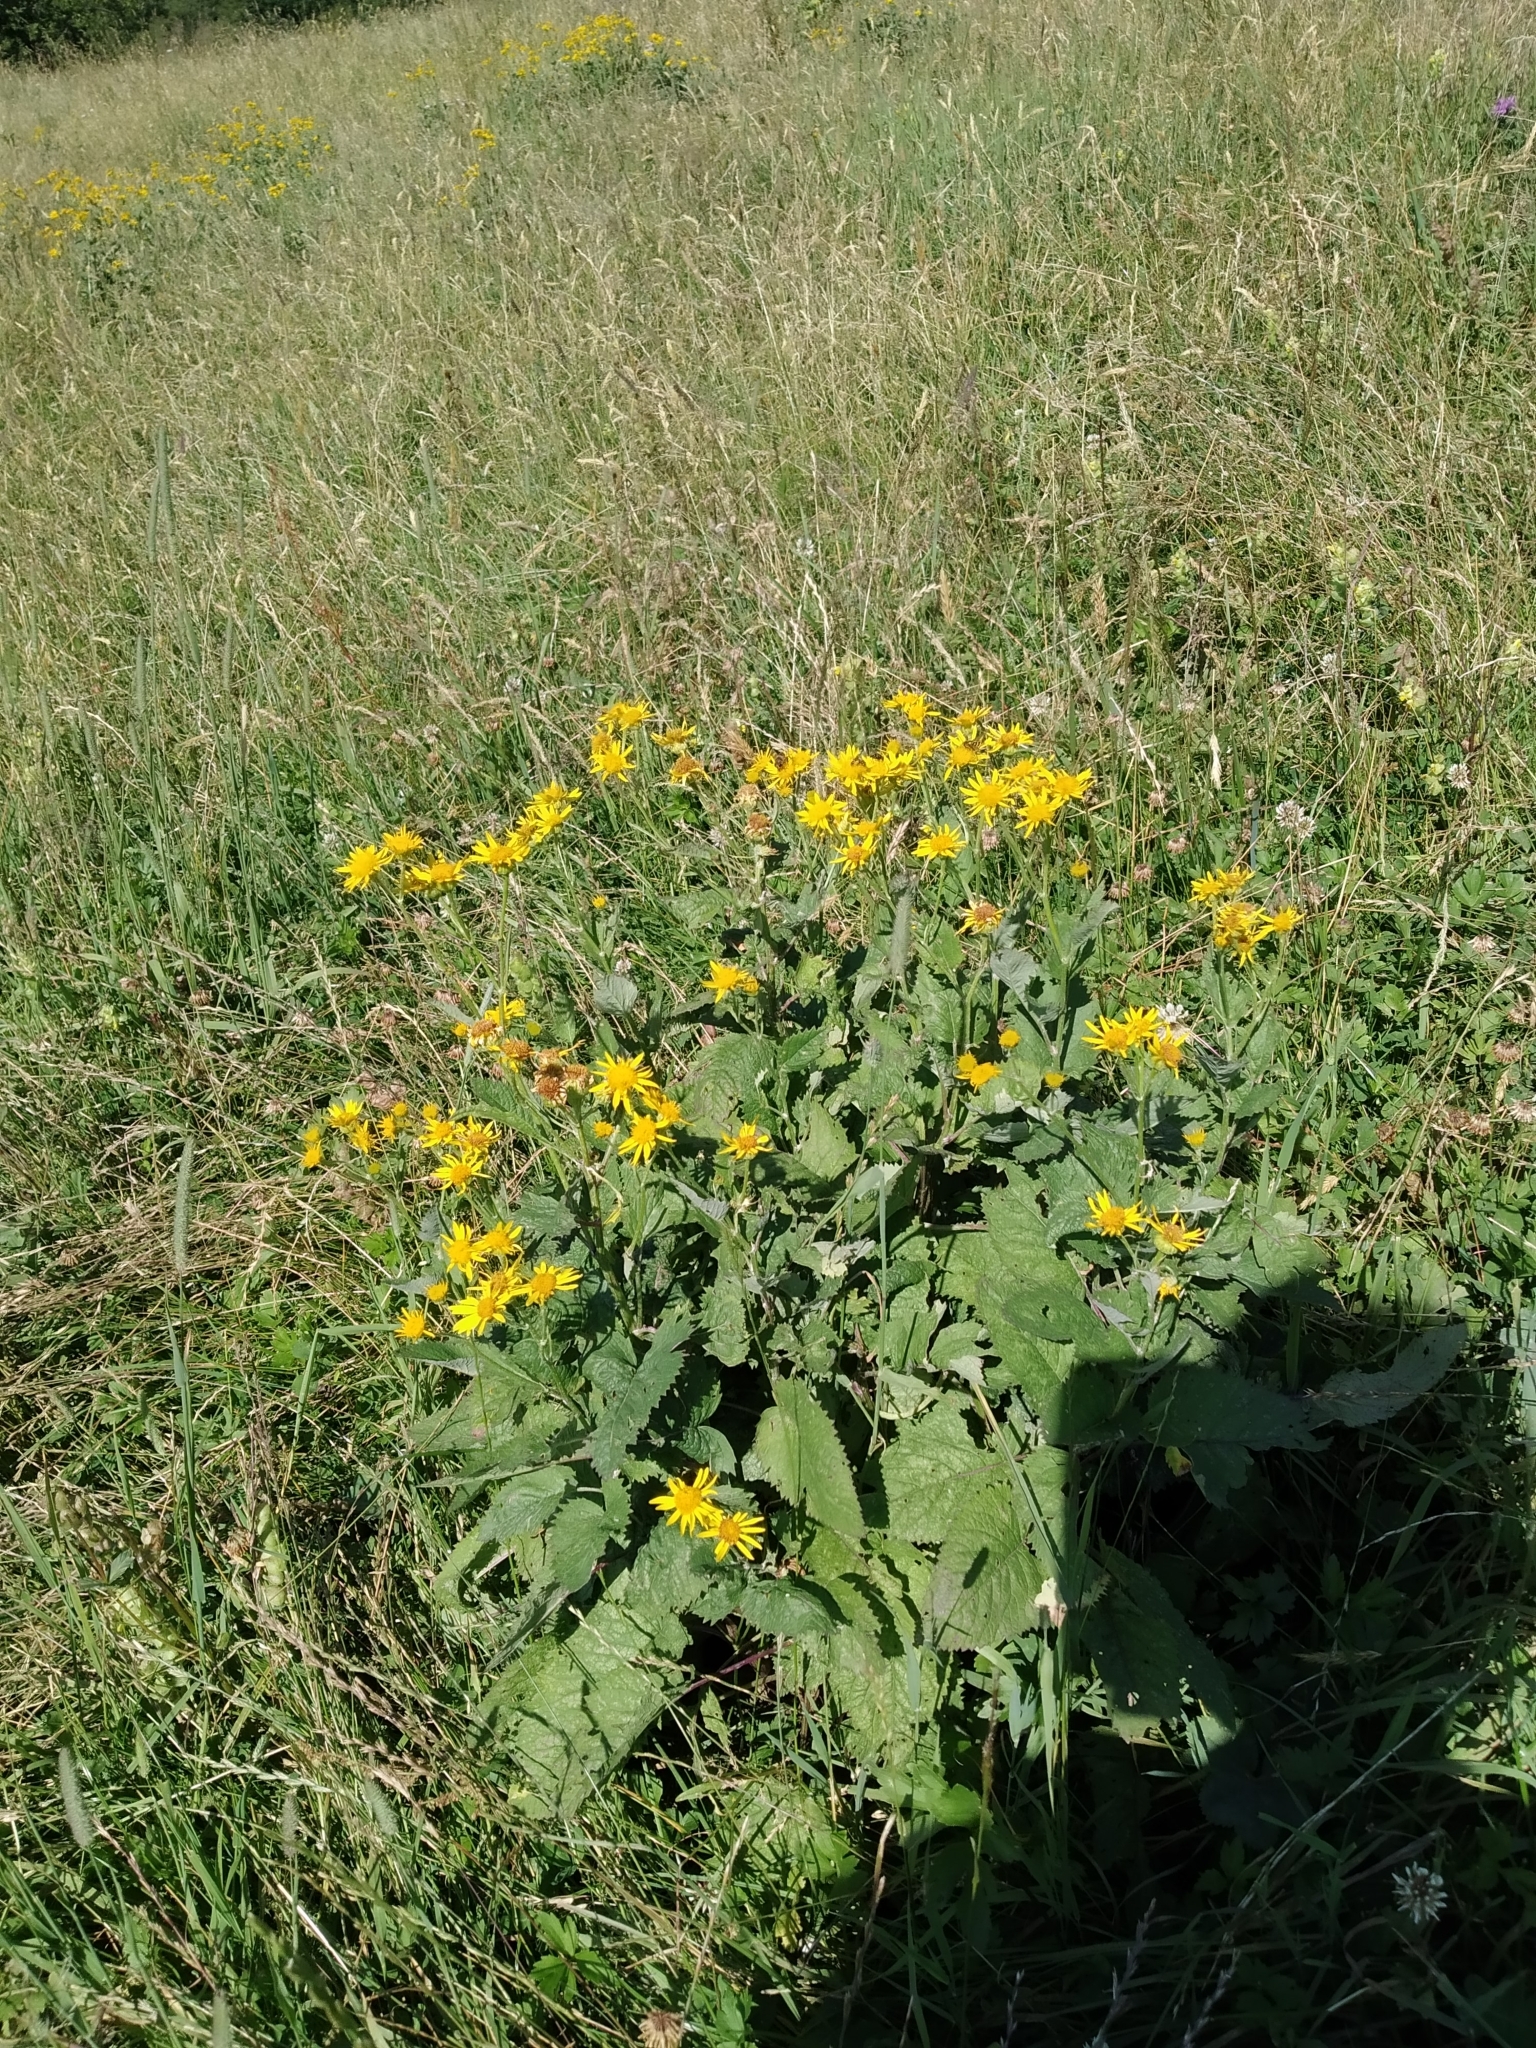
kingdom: Plantae
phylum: Tracheophyta
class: Magnoliopsida
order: Asterales
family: Asteraceae
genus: Jacobaea
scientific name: Jacobaea alpina
